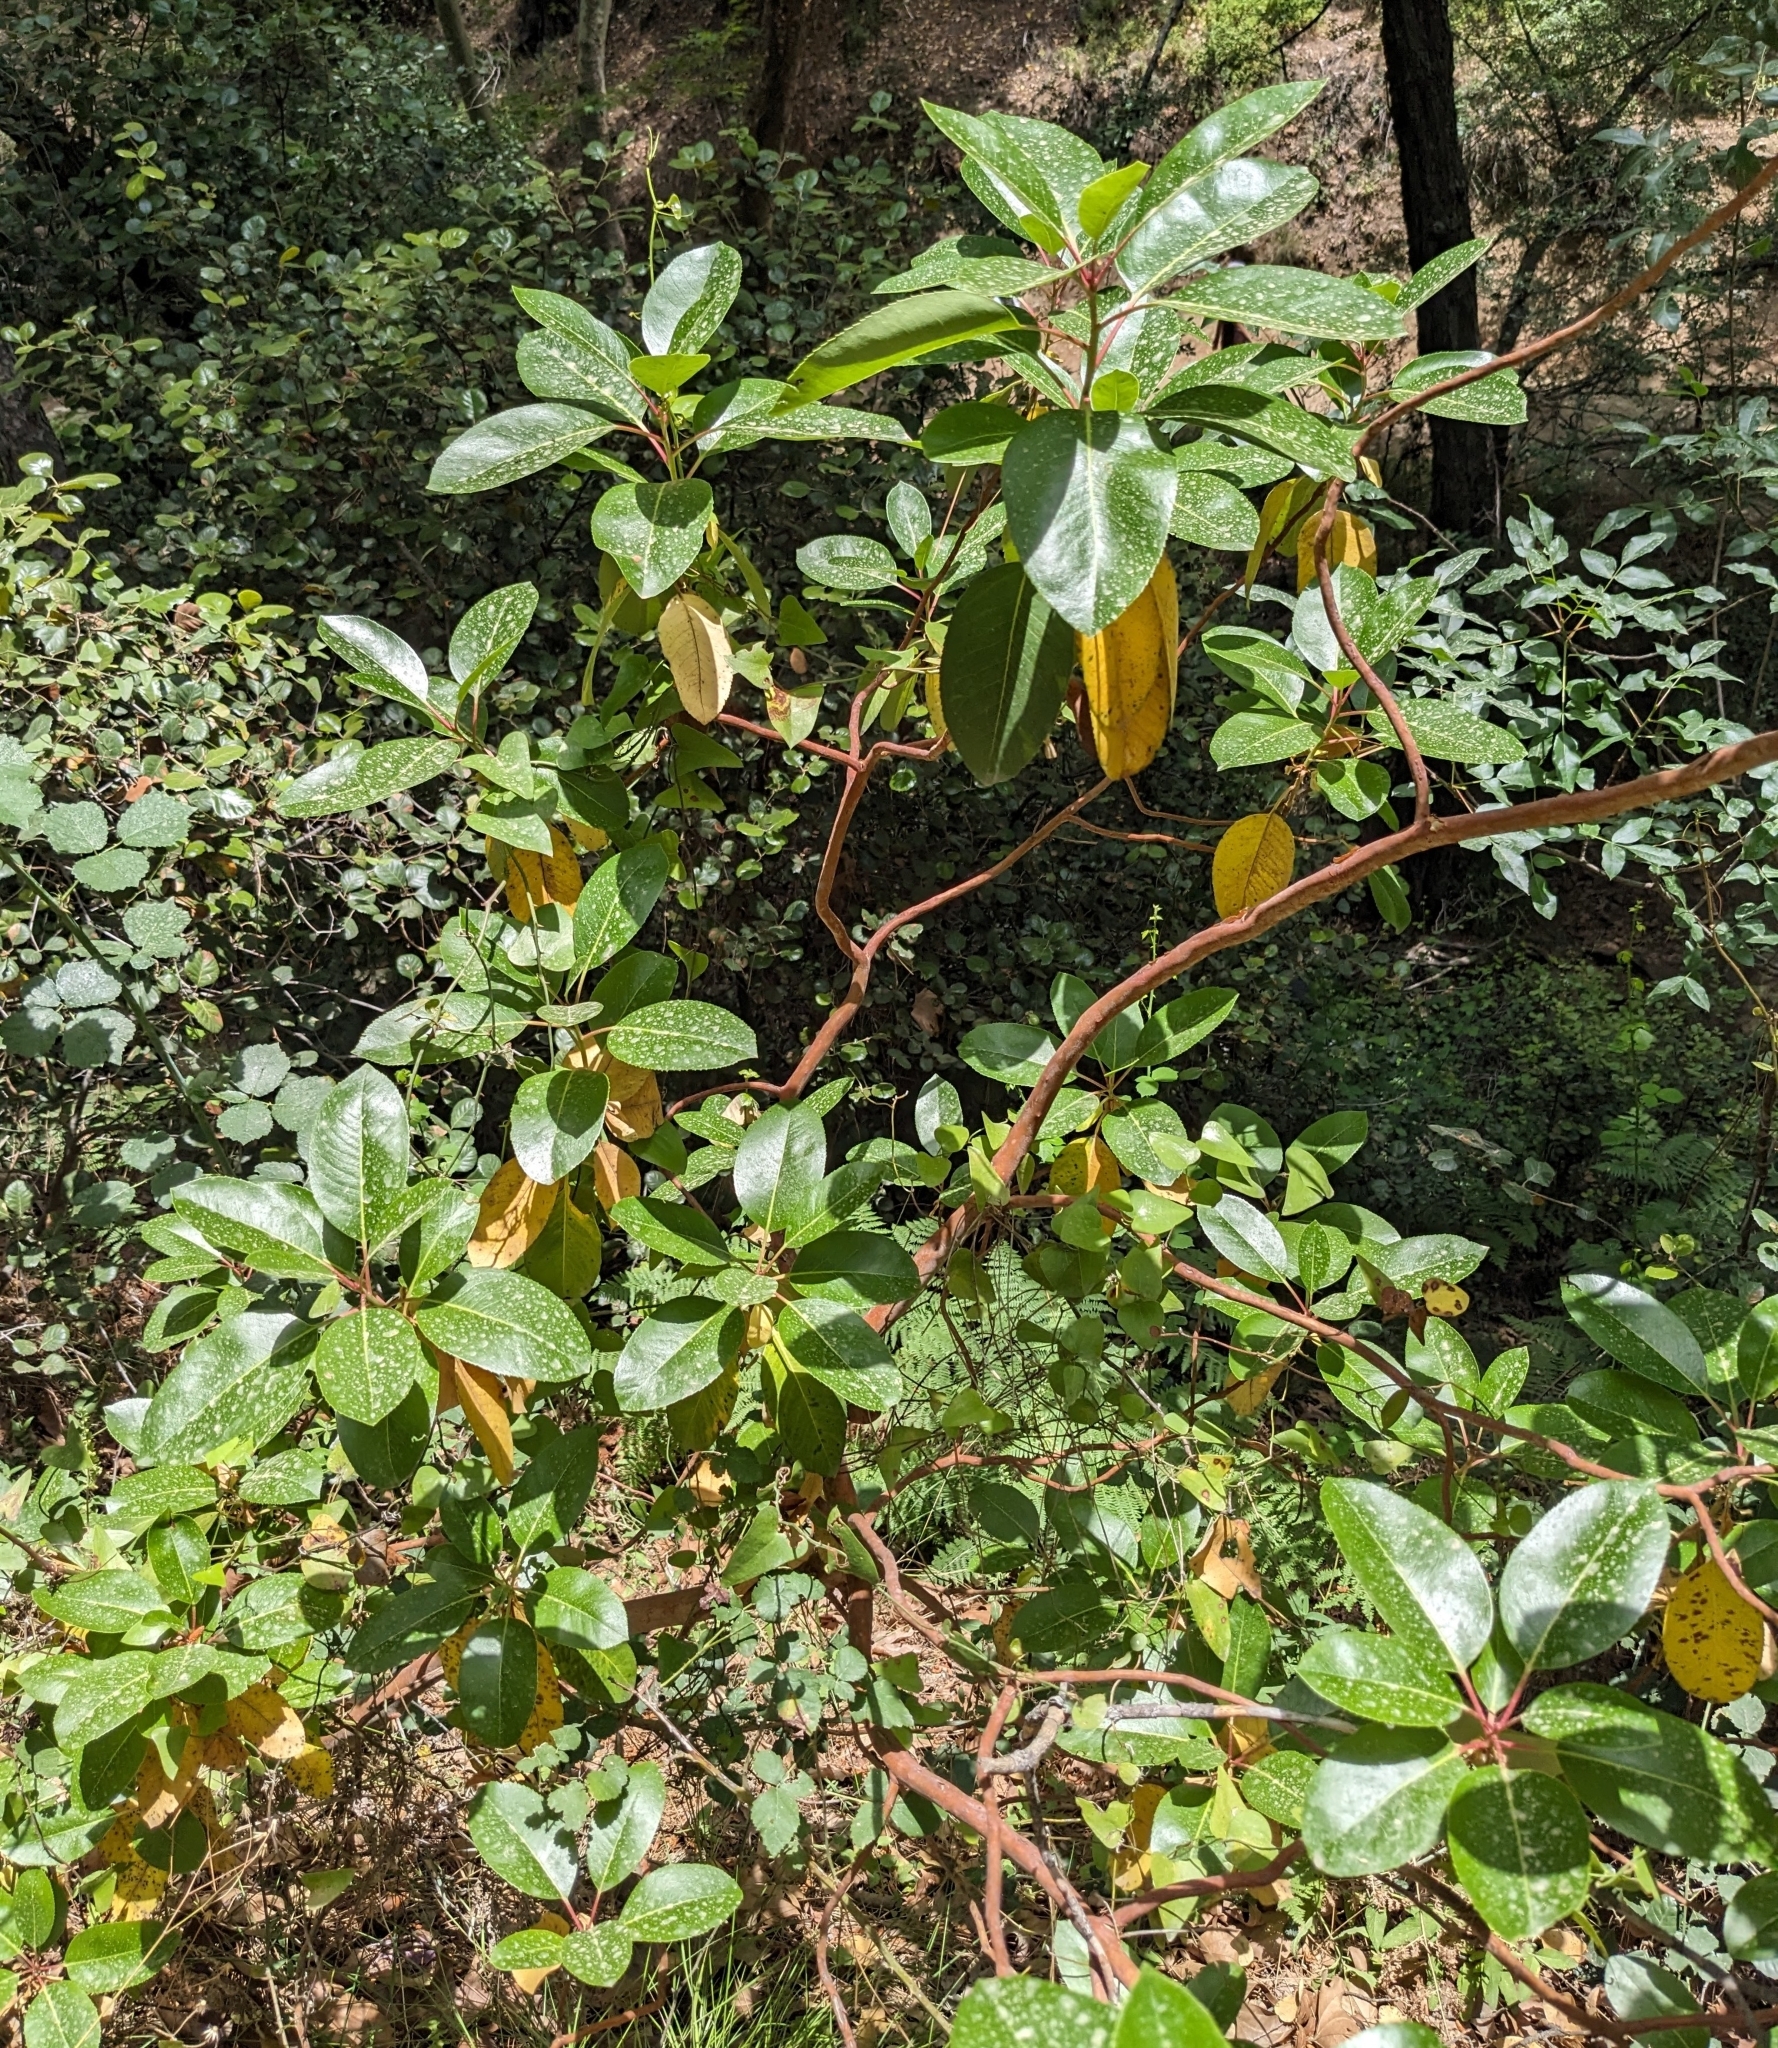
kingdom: Plantae
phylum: Tracheophyta
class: Magnoliopsida
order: Ericales
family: Ericaceae
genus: Arbutus
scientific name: Arbutus andrachne
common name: Greek strawberry tree
